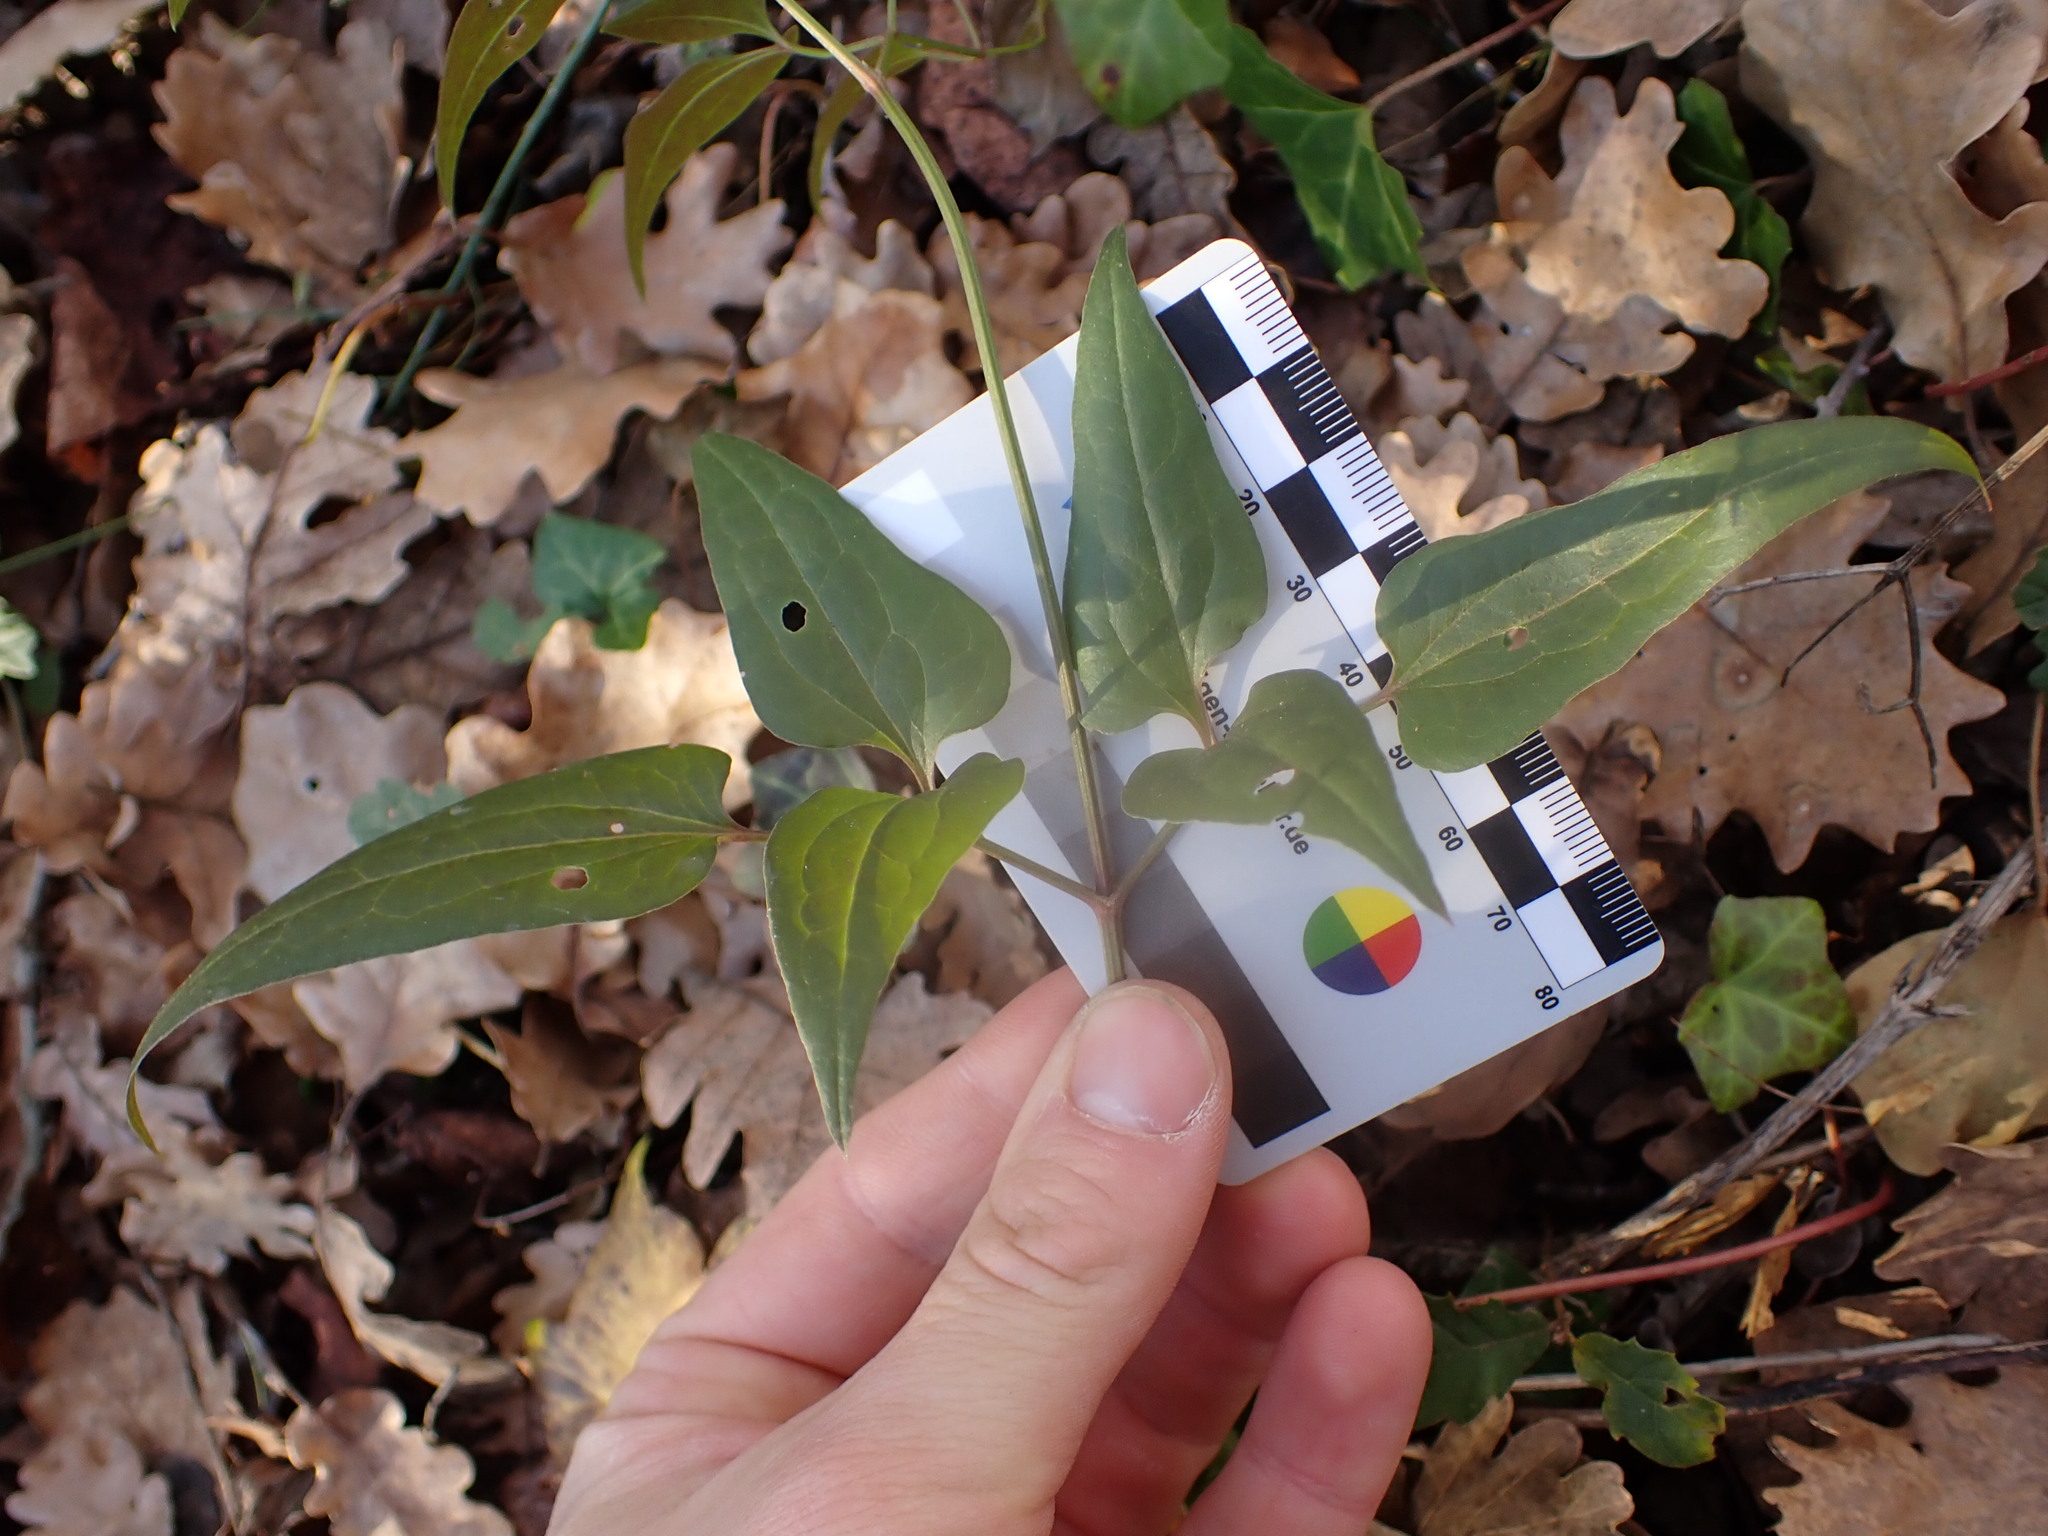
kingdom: Plantae
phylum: Tracheophyta
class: Magnoliopsida
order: Ranunculales
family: Ranunculaceae
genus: Clematis
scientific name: Clematis flammula
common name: Virgin's-bower
